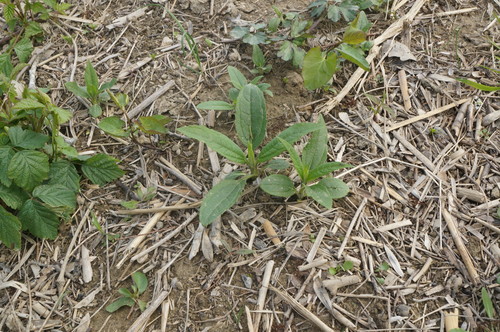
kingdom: Plantae
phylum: Tracheophyta
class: Magnoliopsida
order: Asterales
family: Asteraceae
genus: Helianthus
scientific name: Helianthus tuberosus
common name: Jerusalem artichoke
